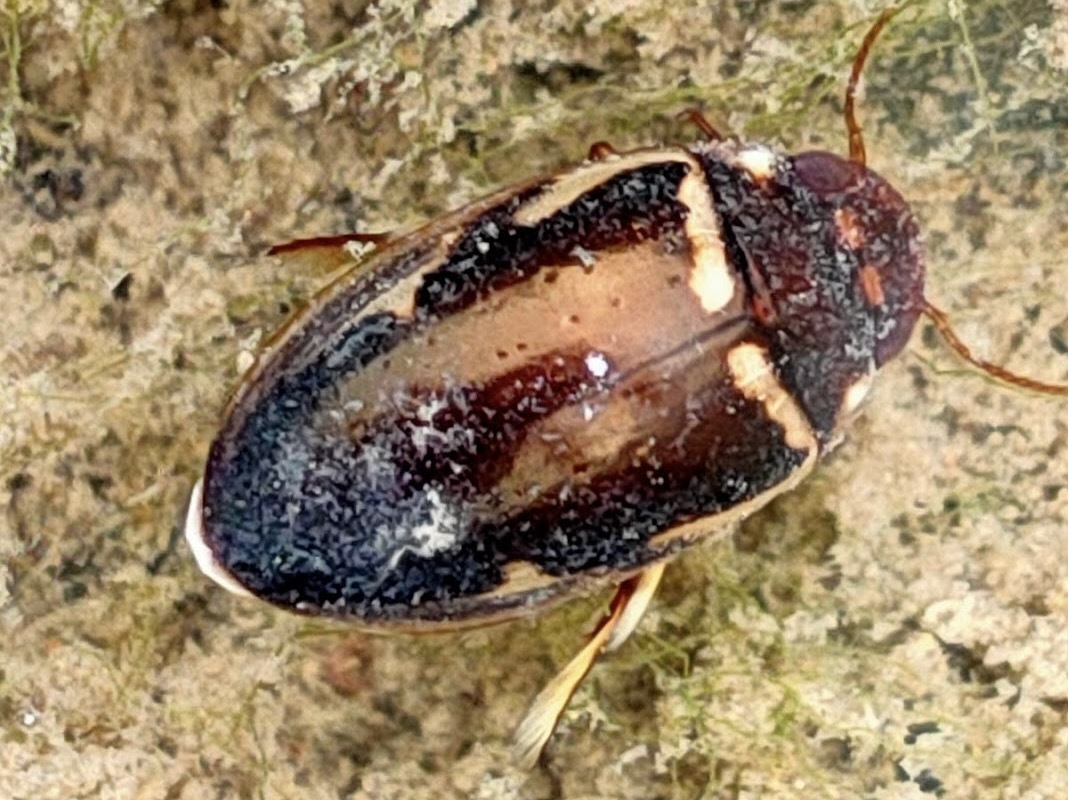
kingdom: Animalia
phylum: Arthropoda
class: Insecta
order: Coleoptera
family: Dytiscidae
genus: Platambus
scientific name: Platambus fimbriatus
